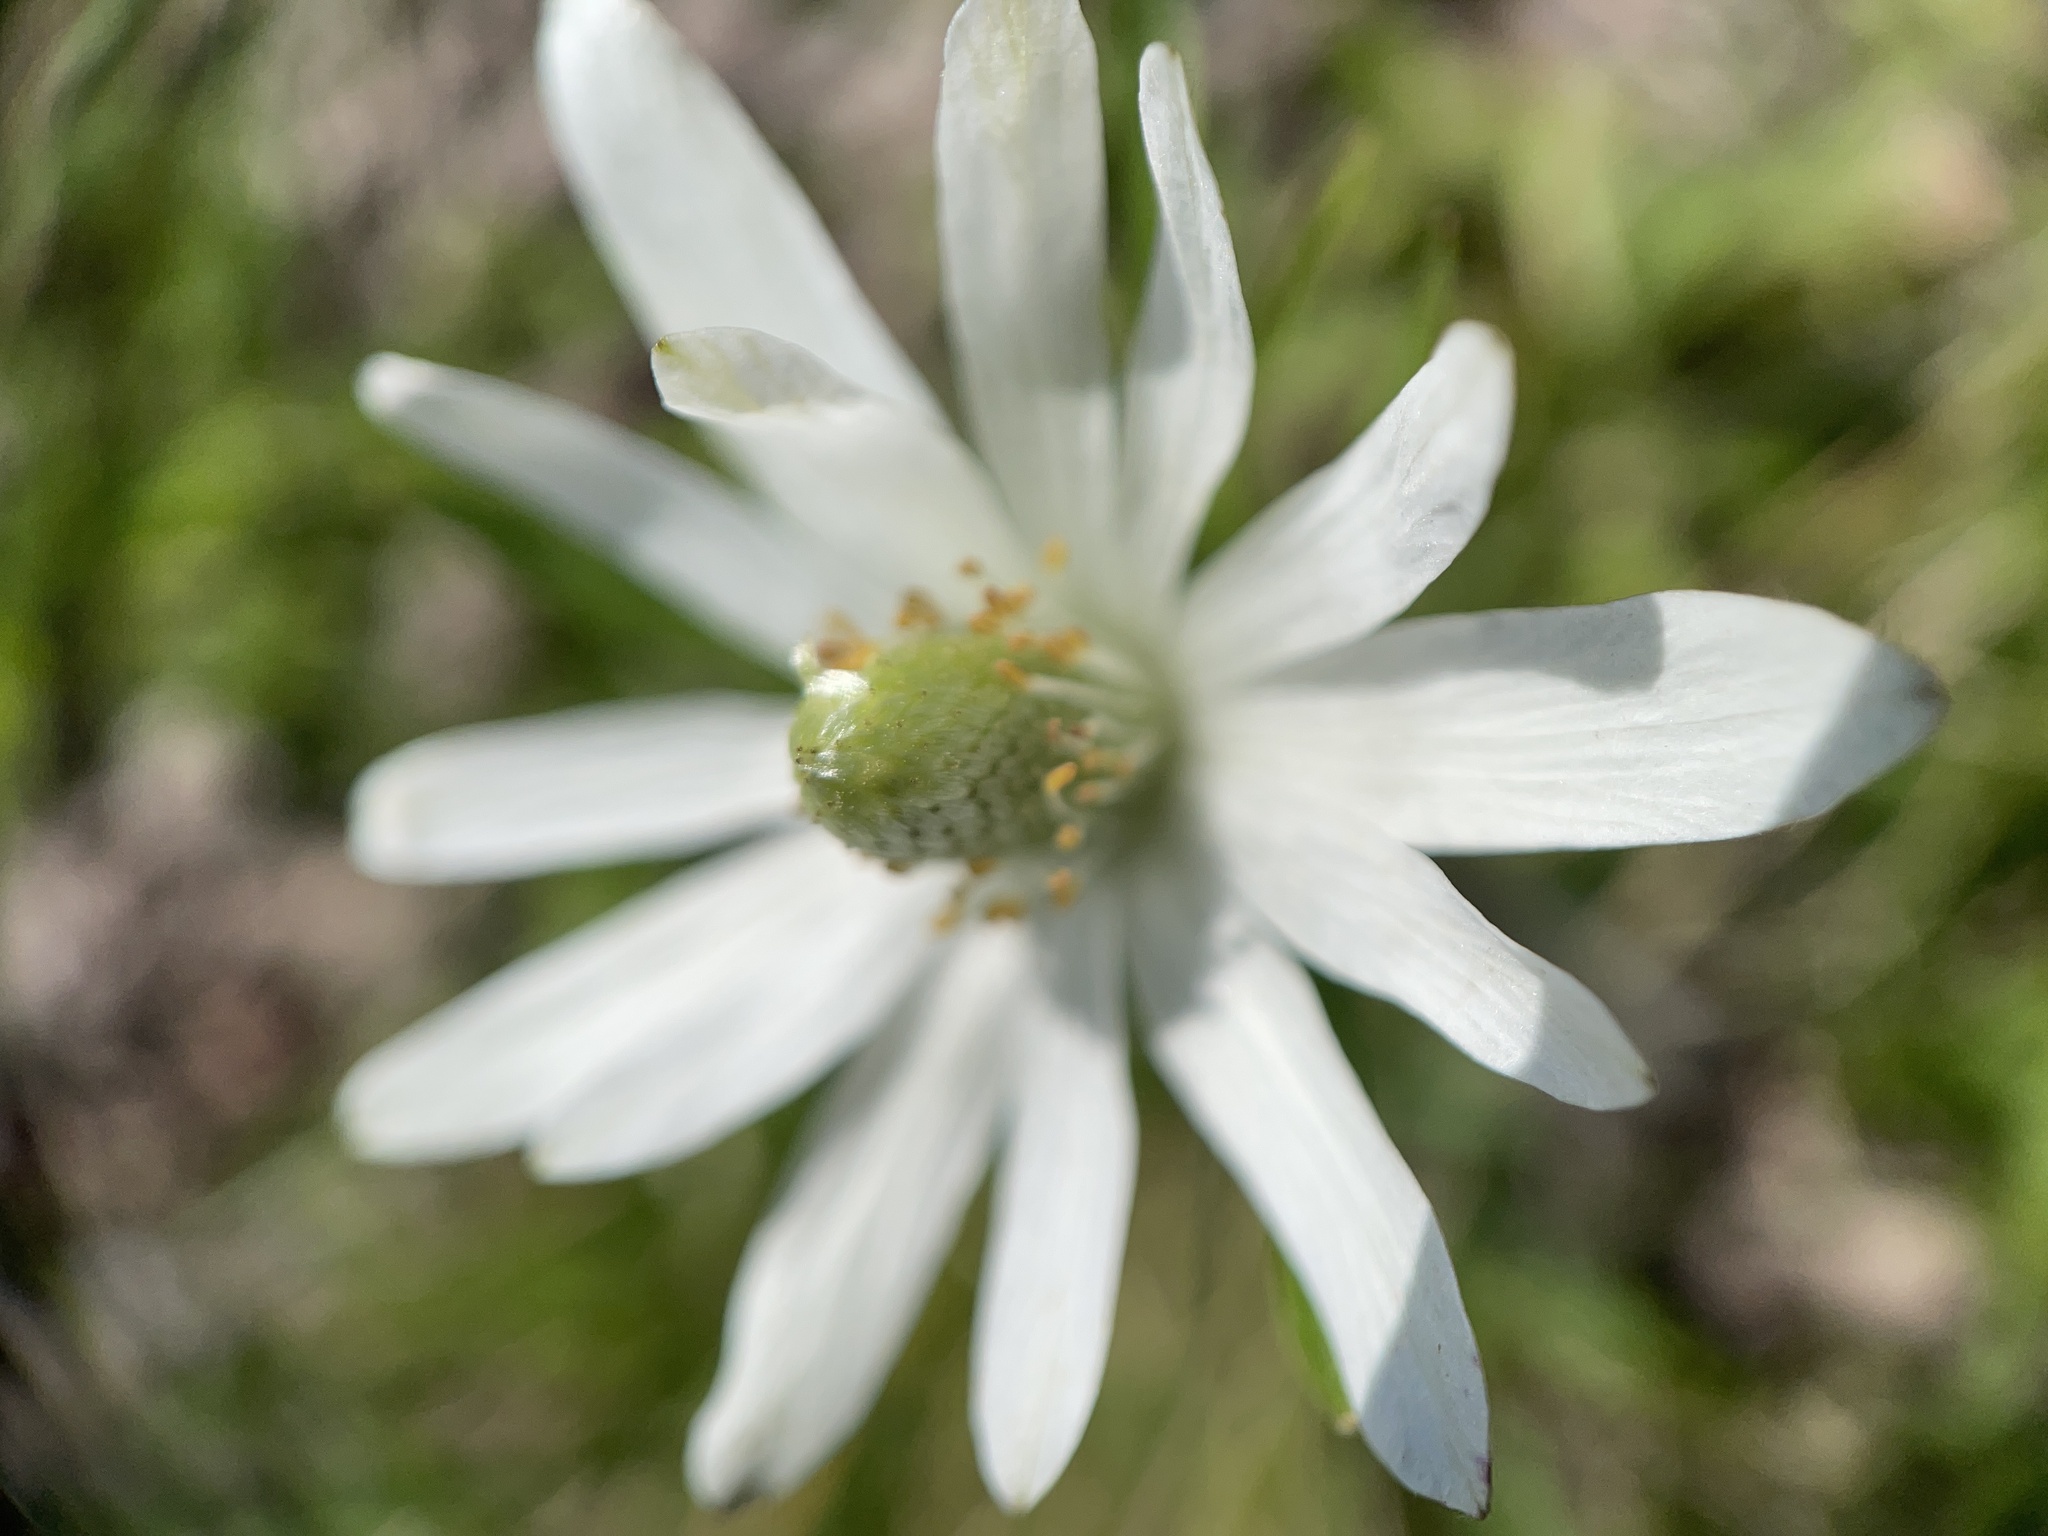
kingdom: Plantae
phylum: Tracheophyta
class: Magnoliopsida
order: Ranunculales
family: Ranunculaceae
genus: Anemone
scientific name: Anemone berlandieri
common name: Ten-petal anemone
